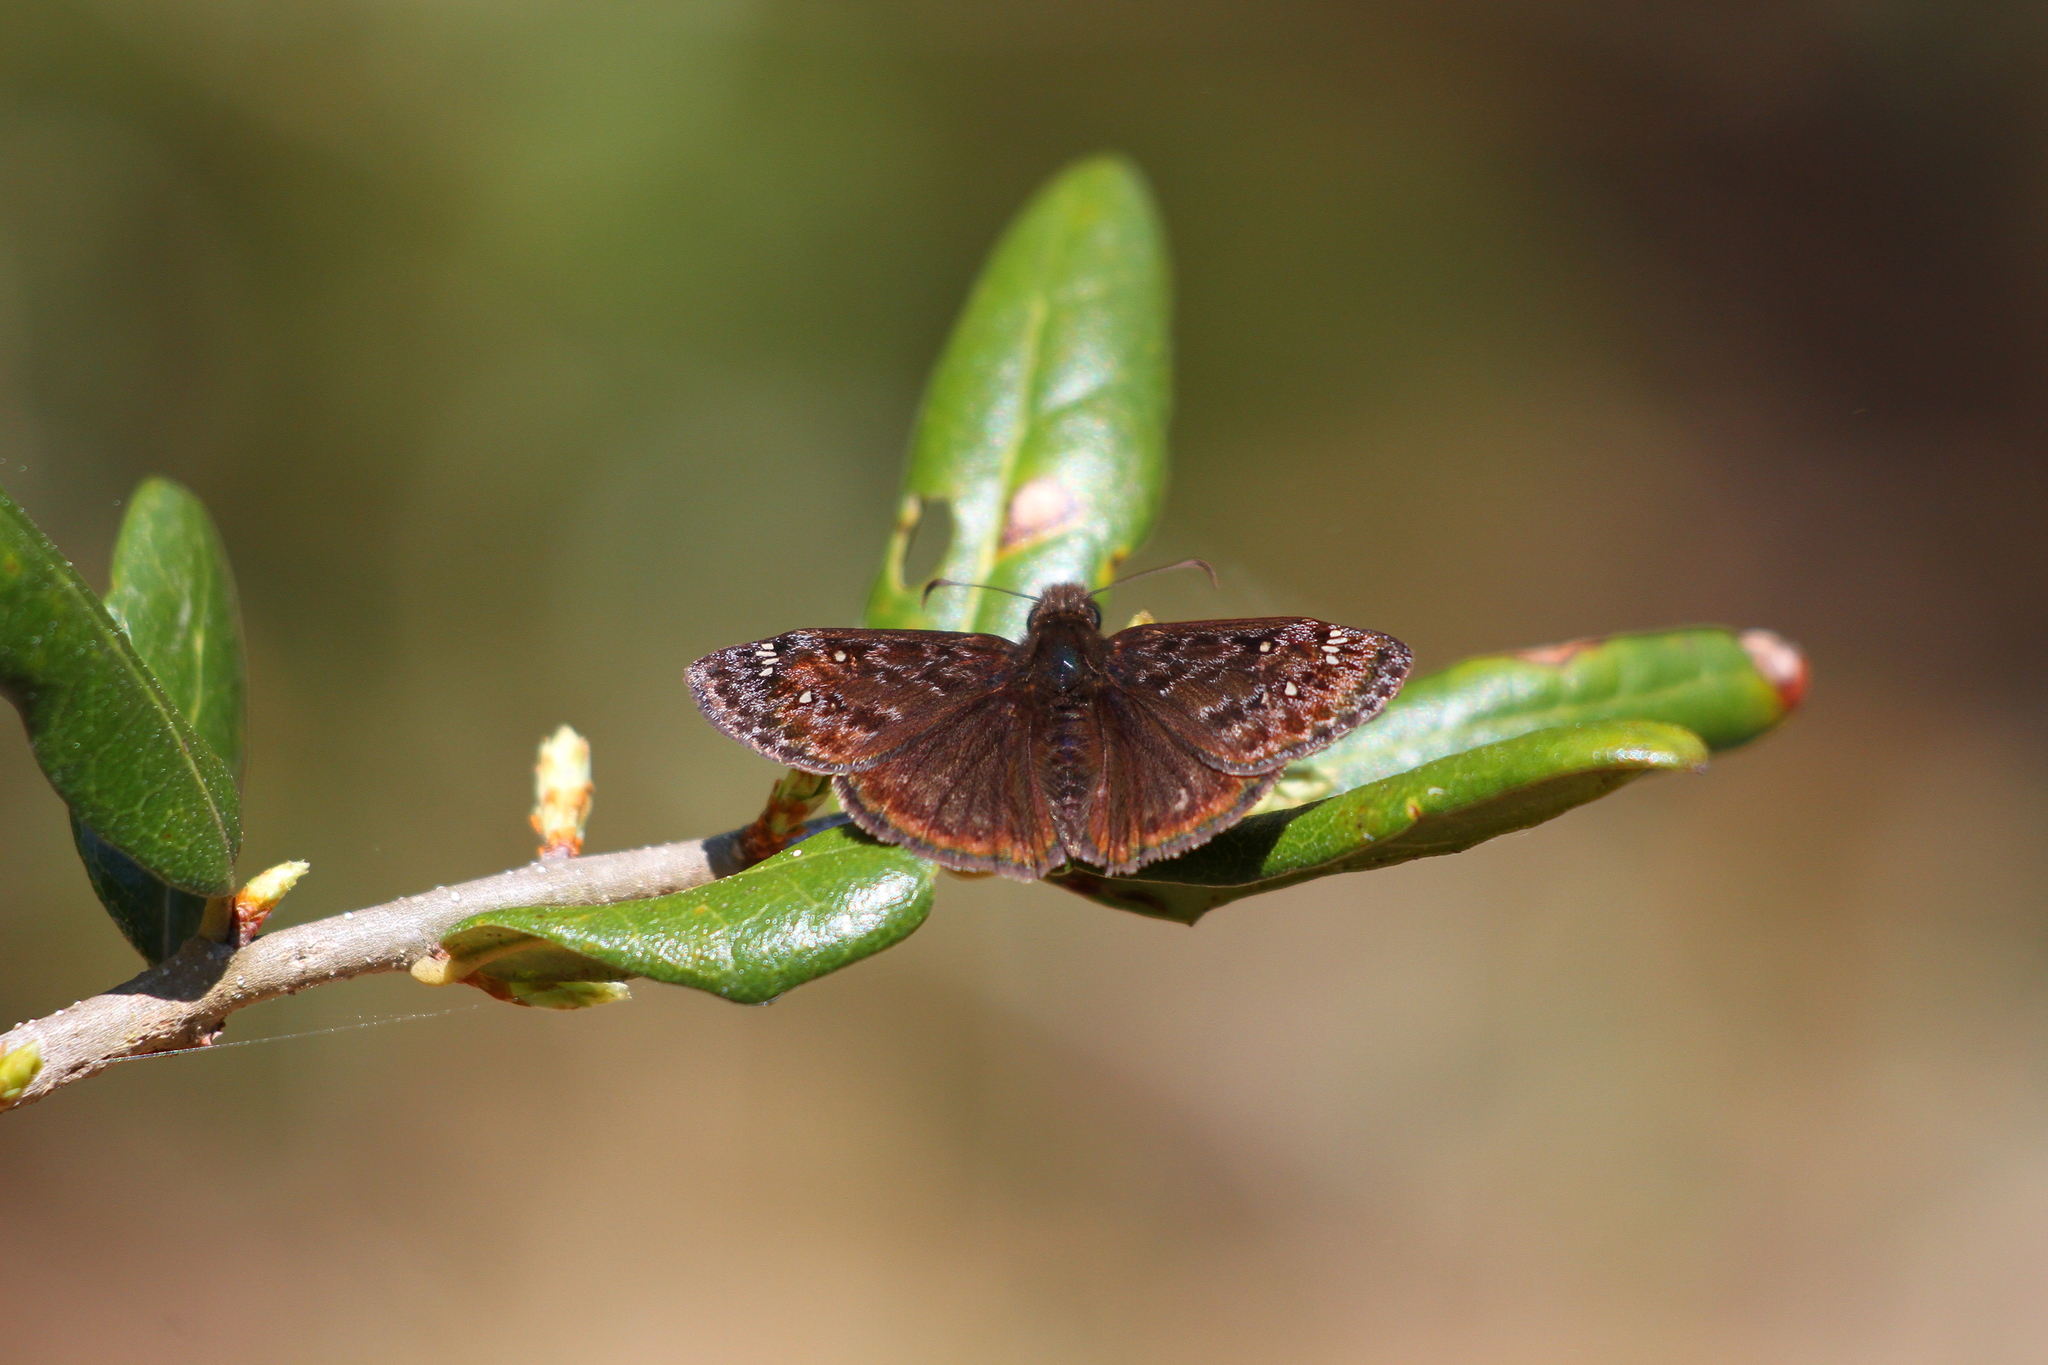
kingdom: Animalia
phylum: Arthropoda
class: Insecta
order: Lepidoptera
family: Hesperiidae
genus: Erynnis
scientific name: Erynnis juvenalis
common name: Juvenal's duskywing
